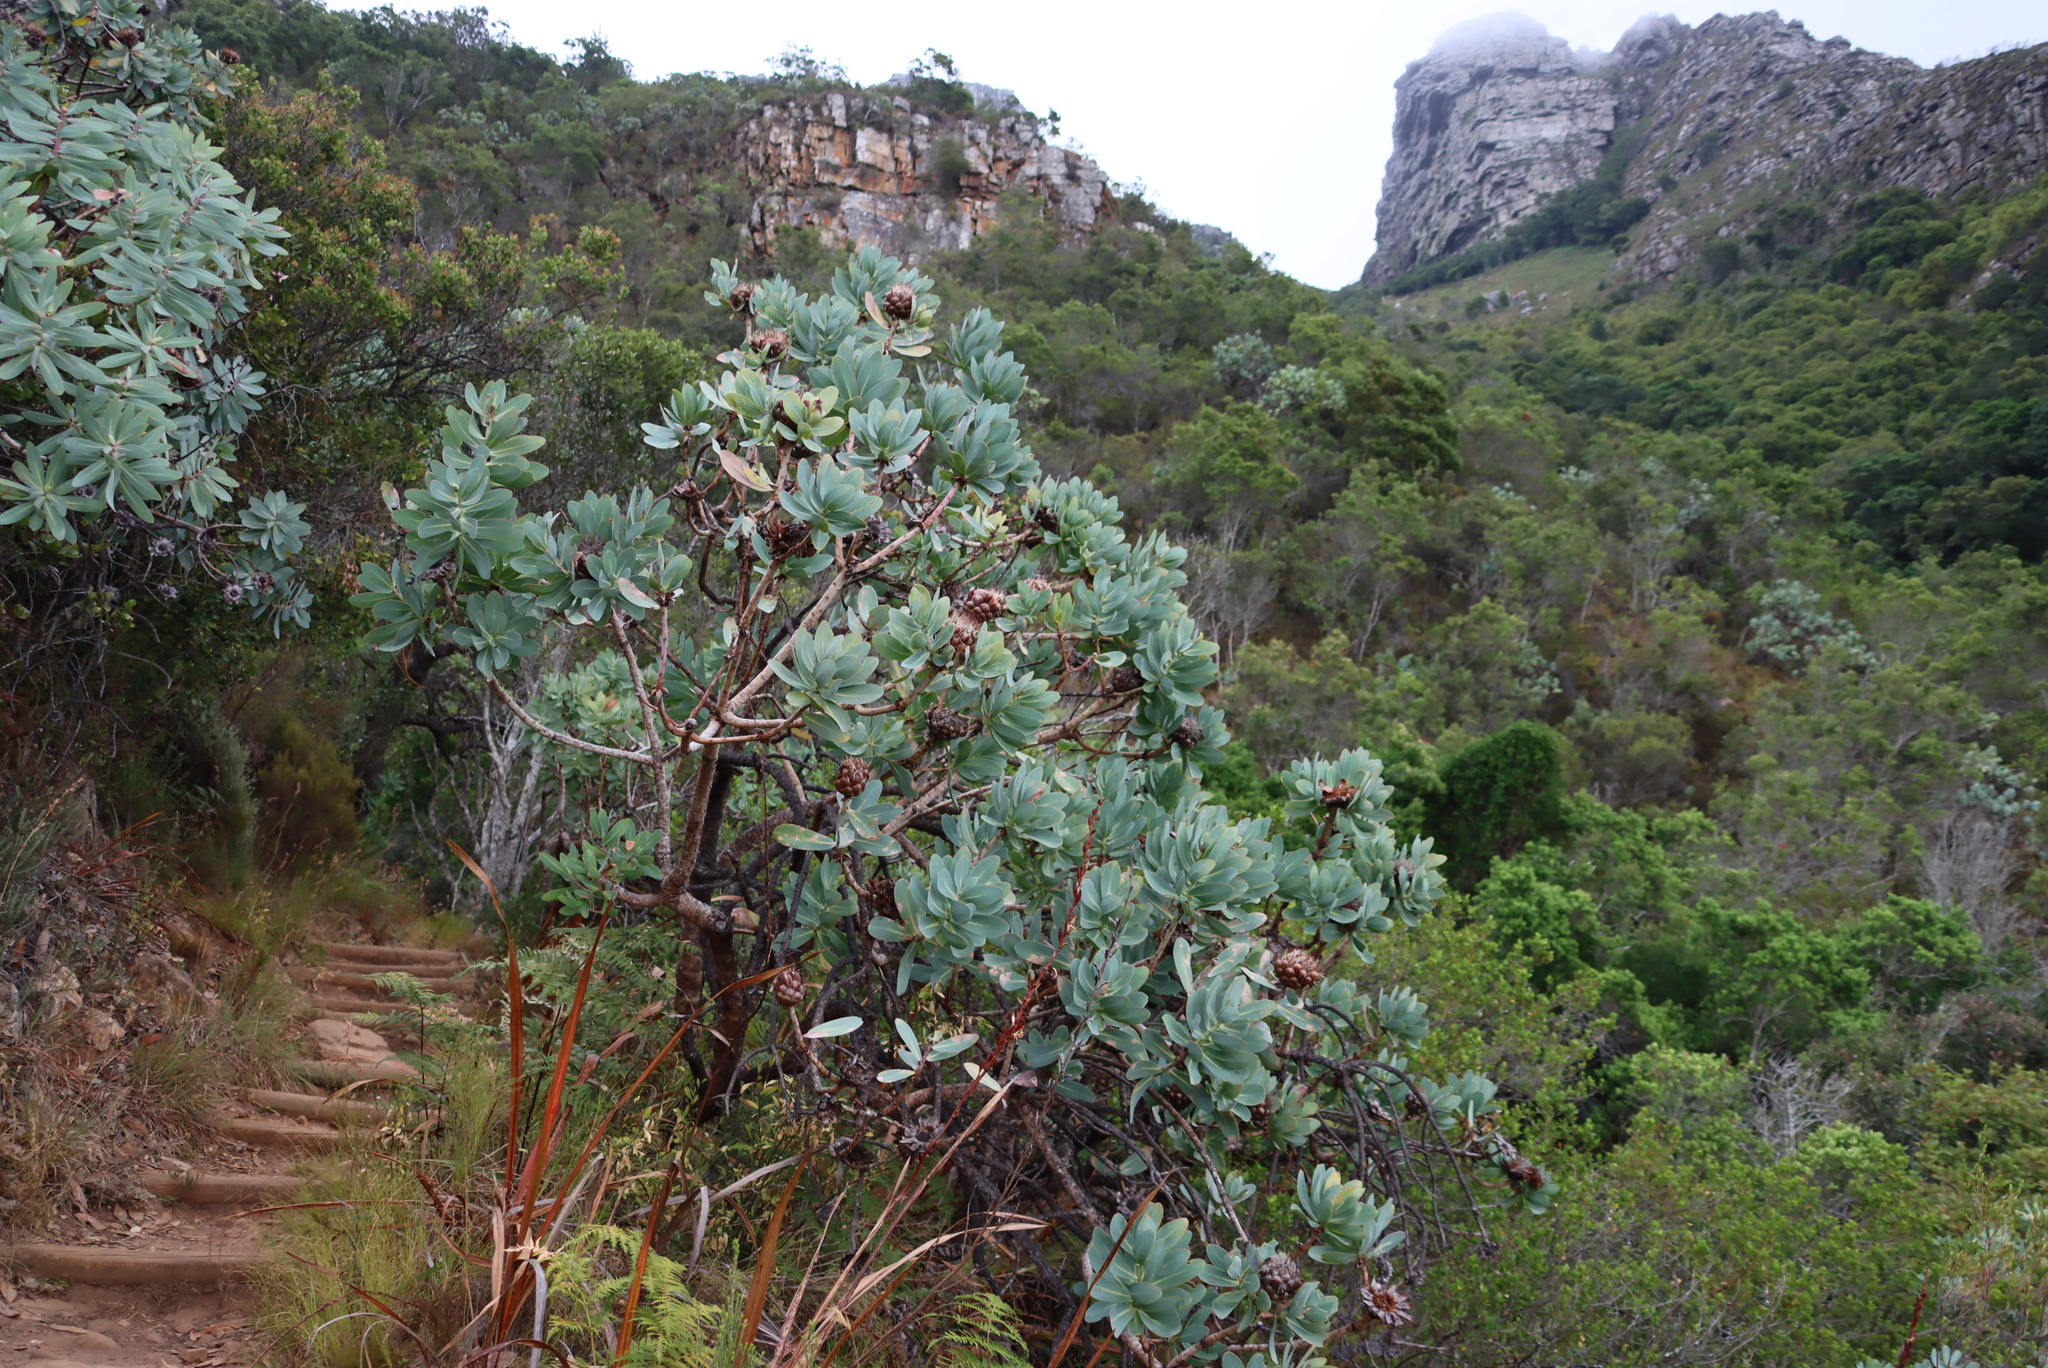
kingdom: Plantae
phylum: Tracheophyta
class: Magnoliopsida
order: Proteales
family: Proteaceae
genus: Protea
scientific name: Protea nitida
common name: Tree protea
